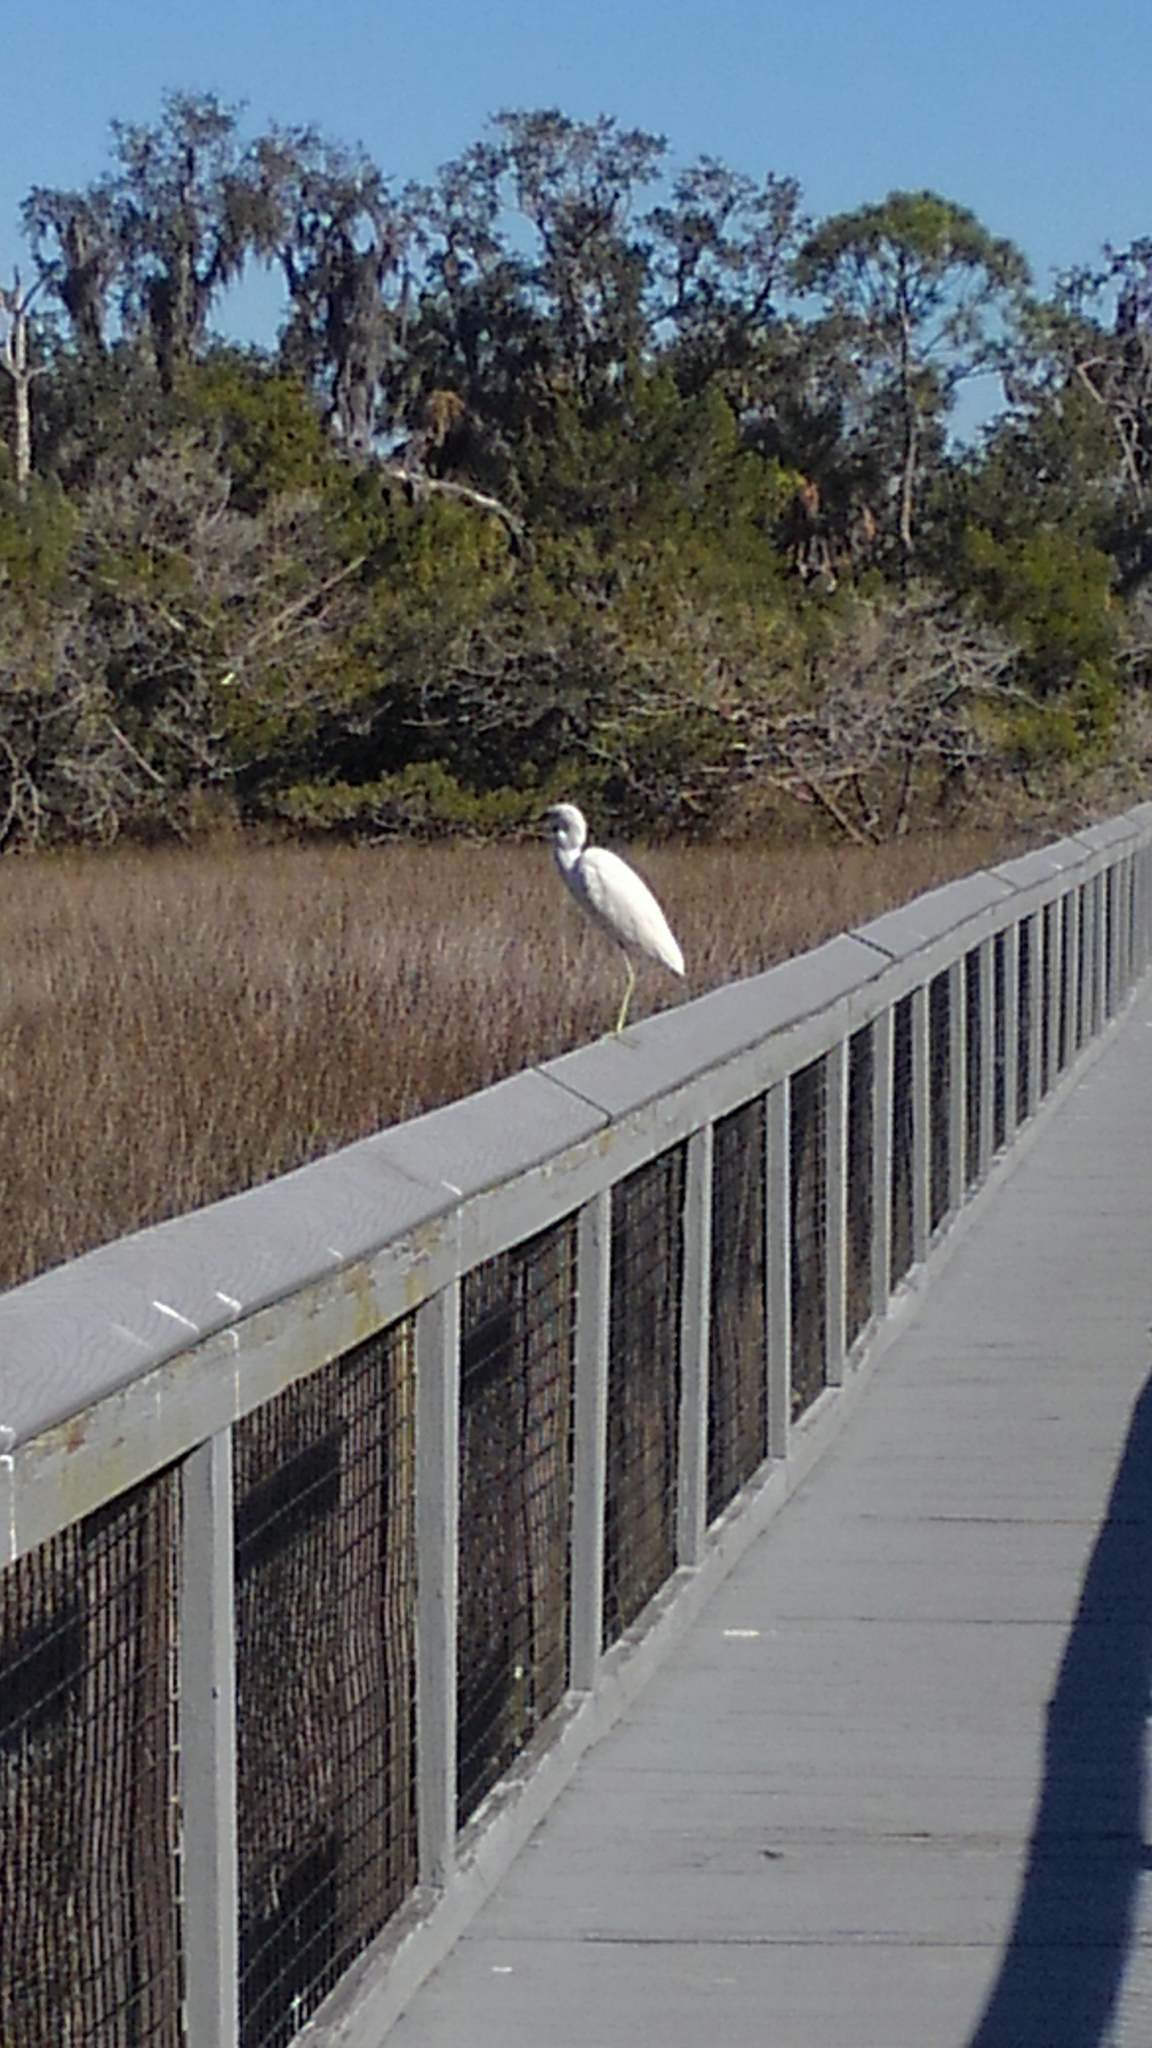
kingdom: Animalia
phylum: Chordata
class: Aves
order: Pelecaniformes
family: Ardeidae
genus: Egretta
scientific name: Egretta caerulea
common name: Little blue heron
